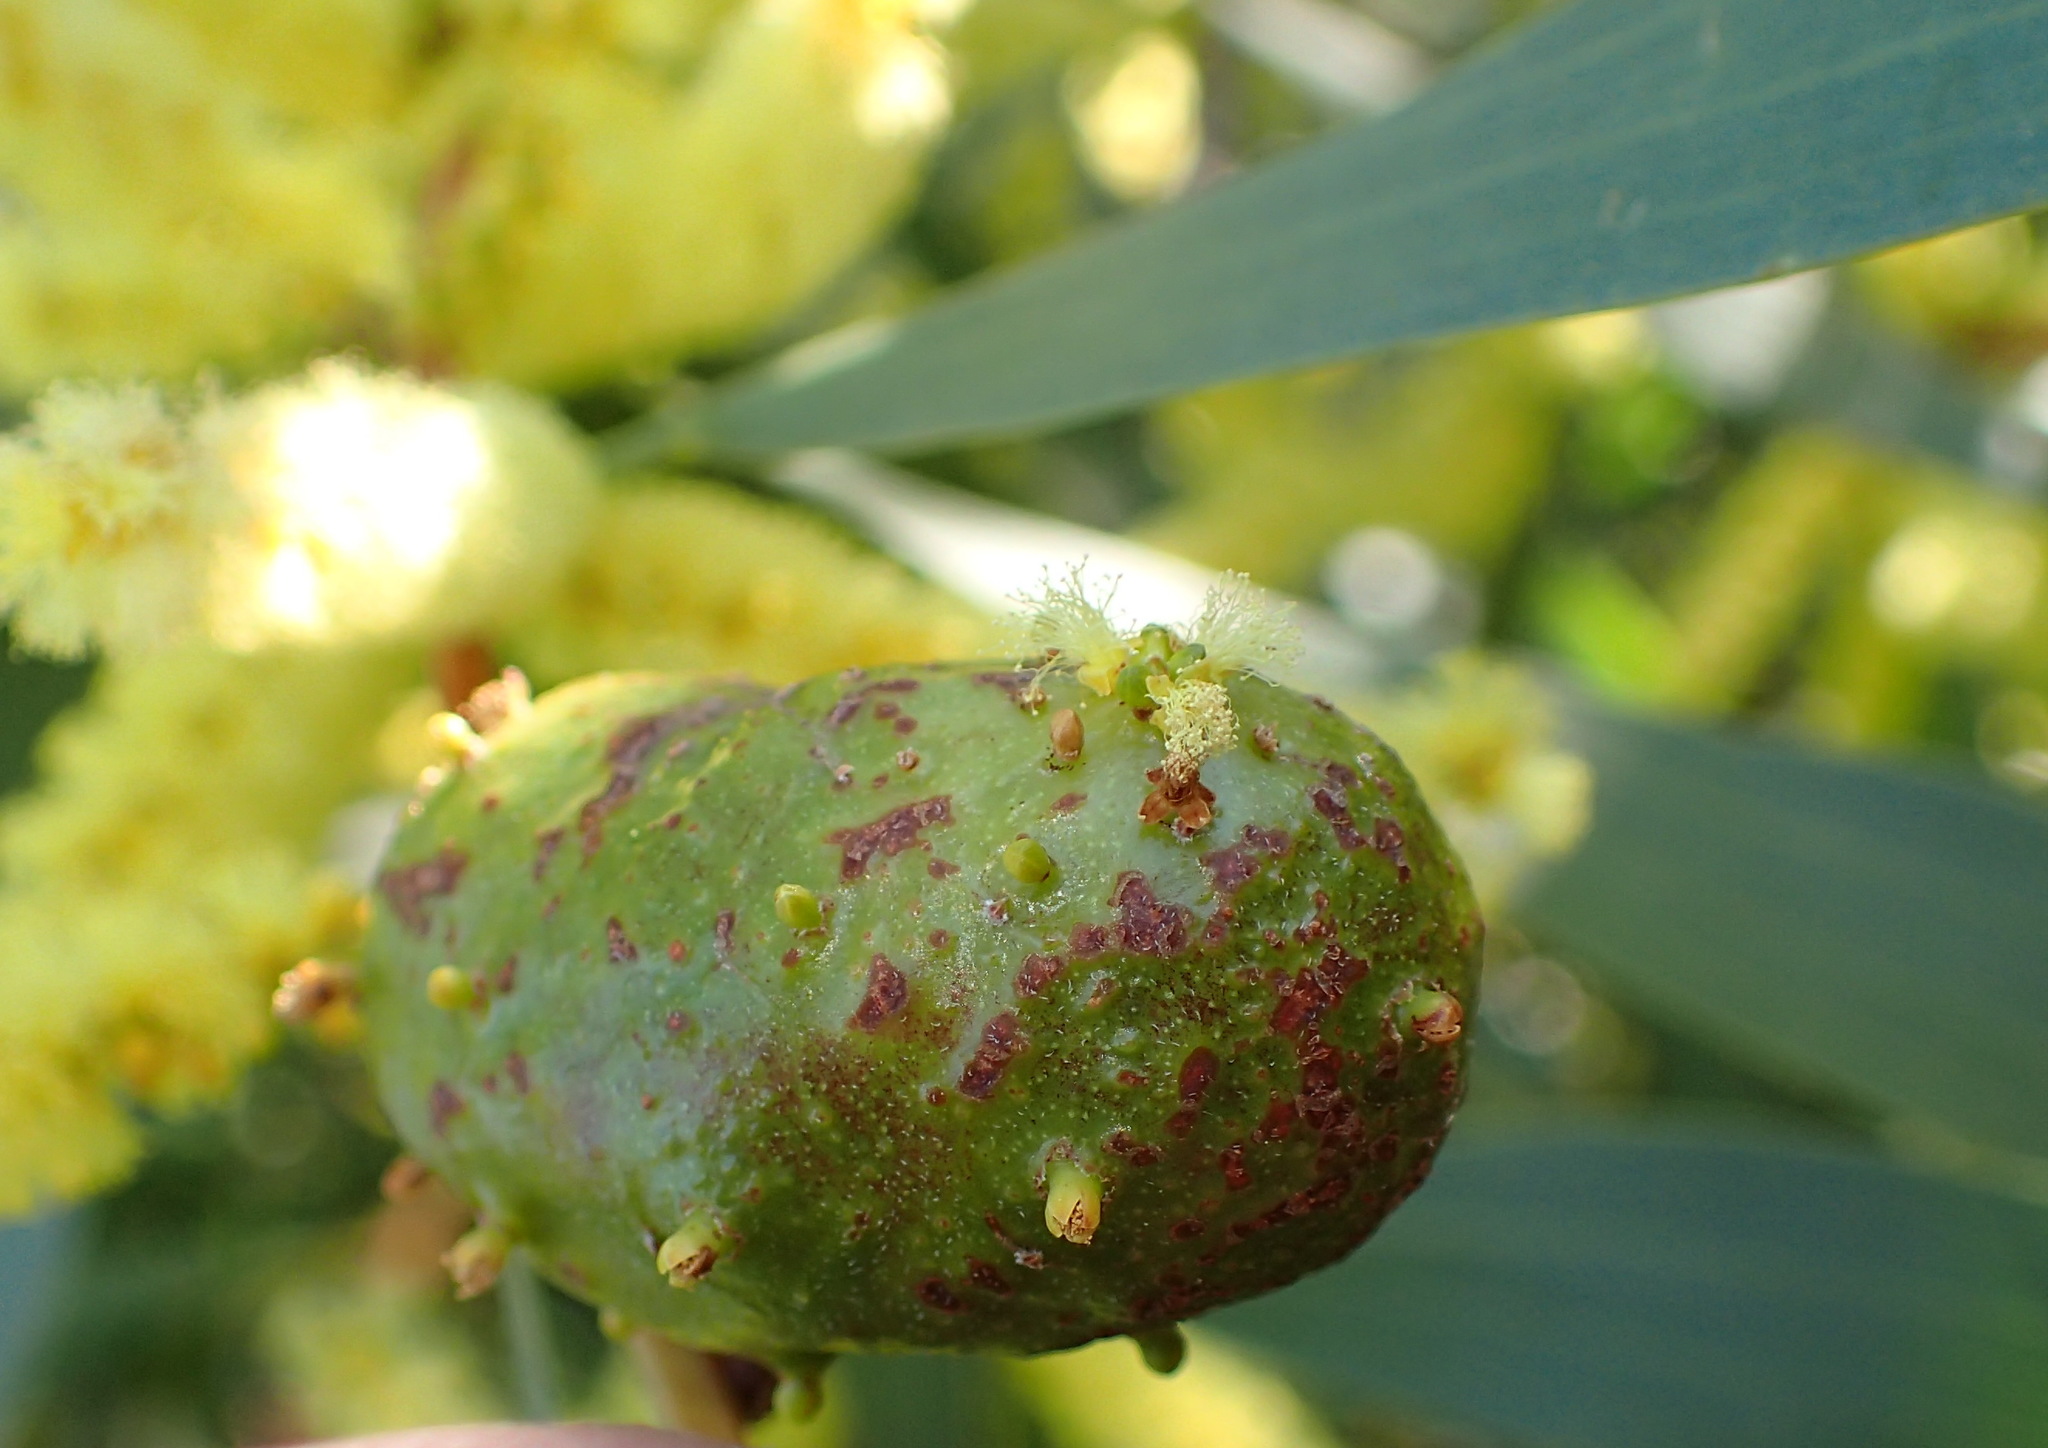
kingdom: Animalia
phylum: Arthropoda
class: Insecta
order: Hymenoptera
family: Pteromalidae
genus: Trichilogaster
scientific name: Trichilogaster acaciaelongifoliae
